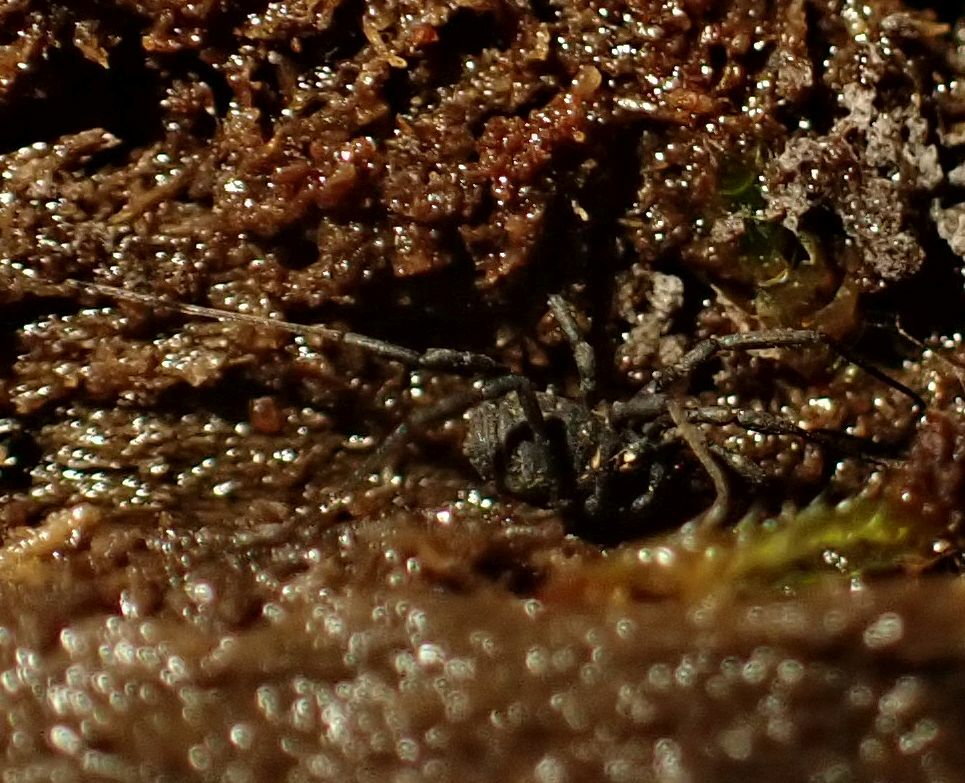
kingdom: Animalia
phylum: Arthropoda
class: Arachnida
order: Opiliones
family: Nemastomatidae
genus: Nemastoma
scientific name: Nemastoma bimaculatum
